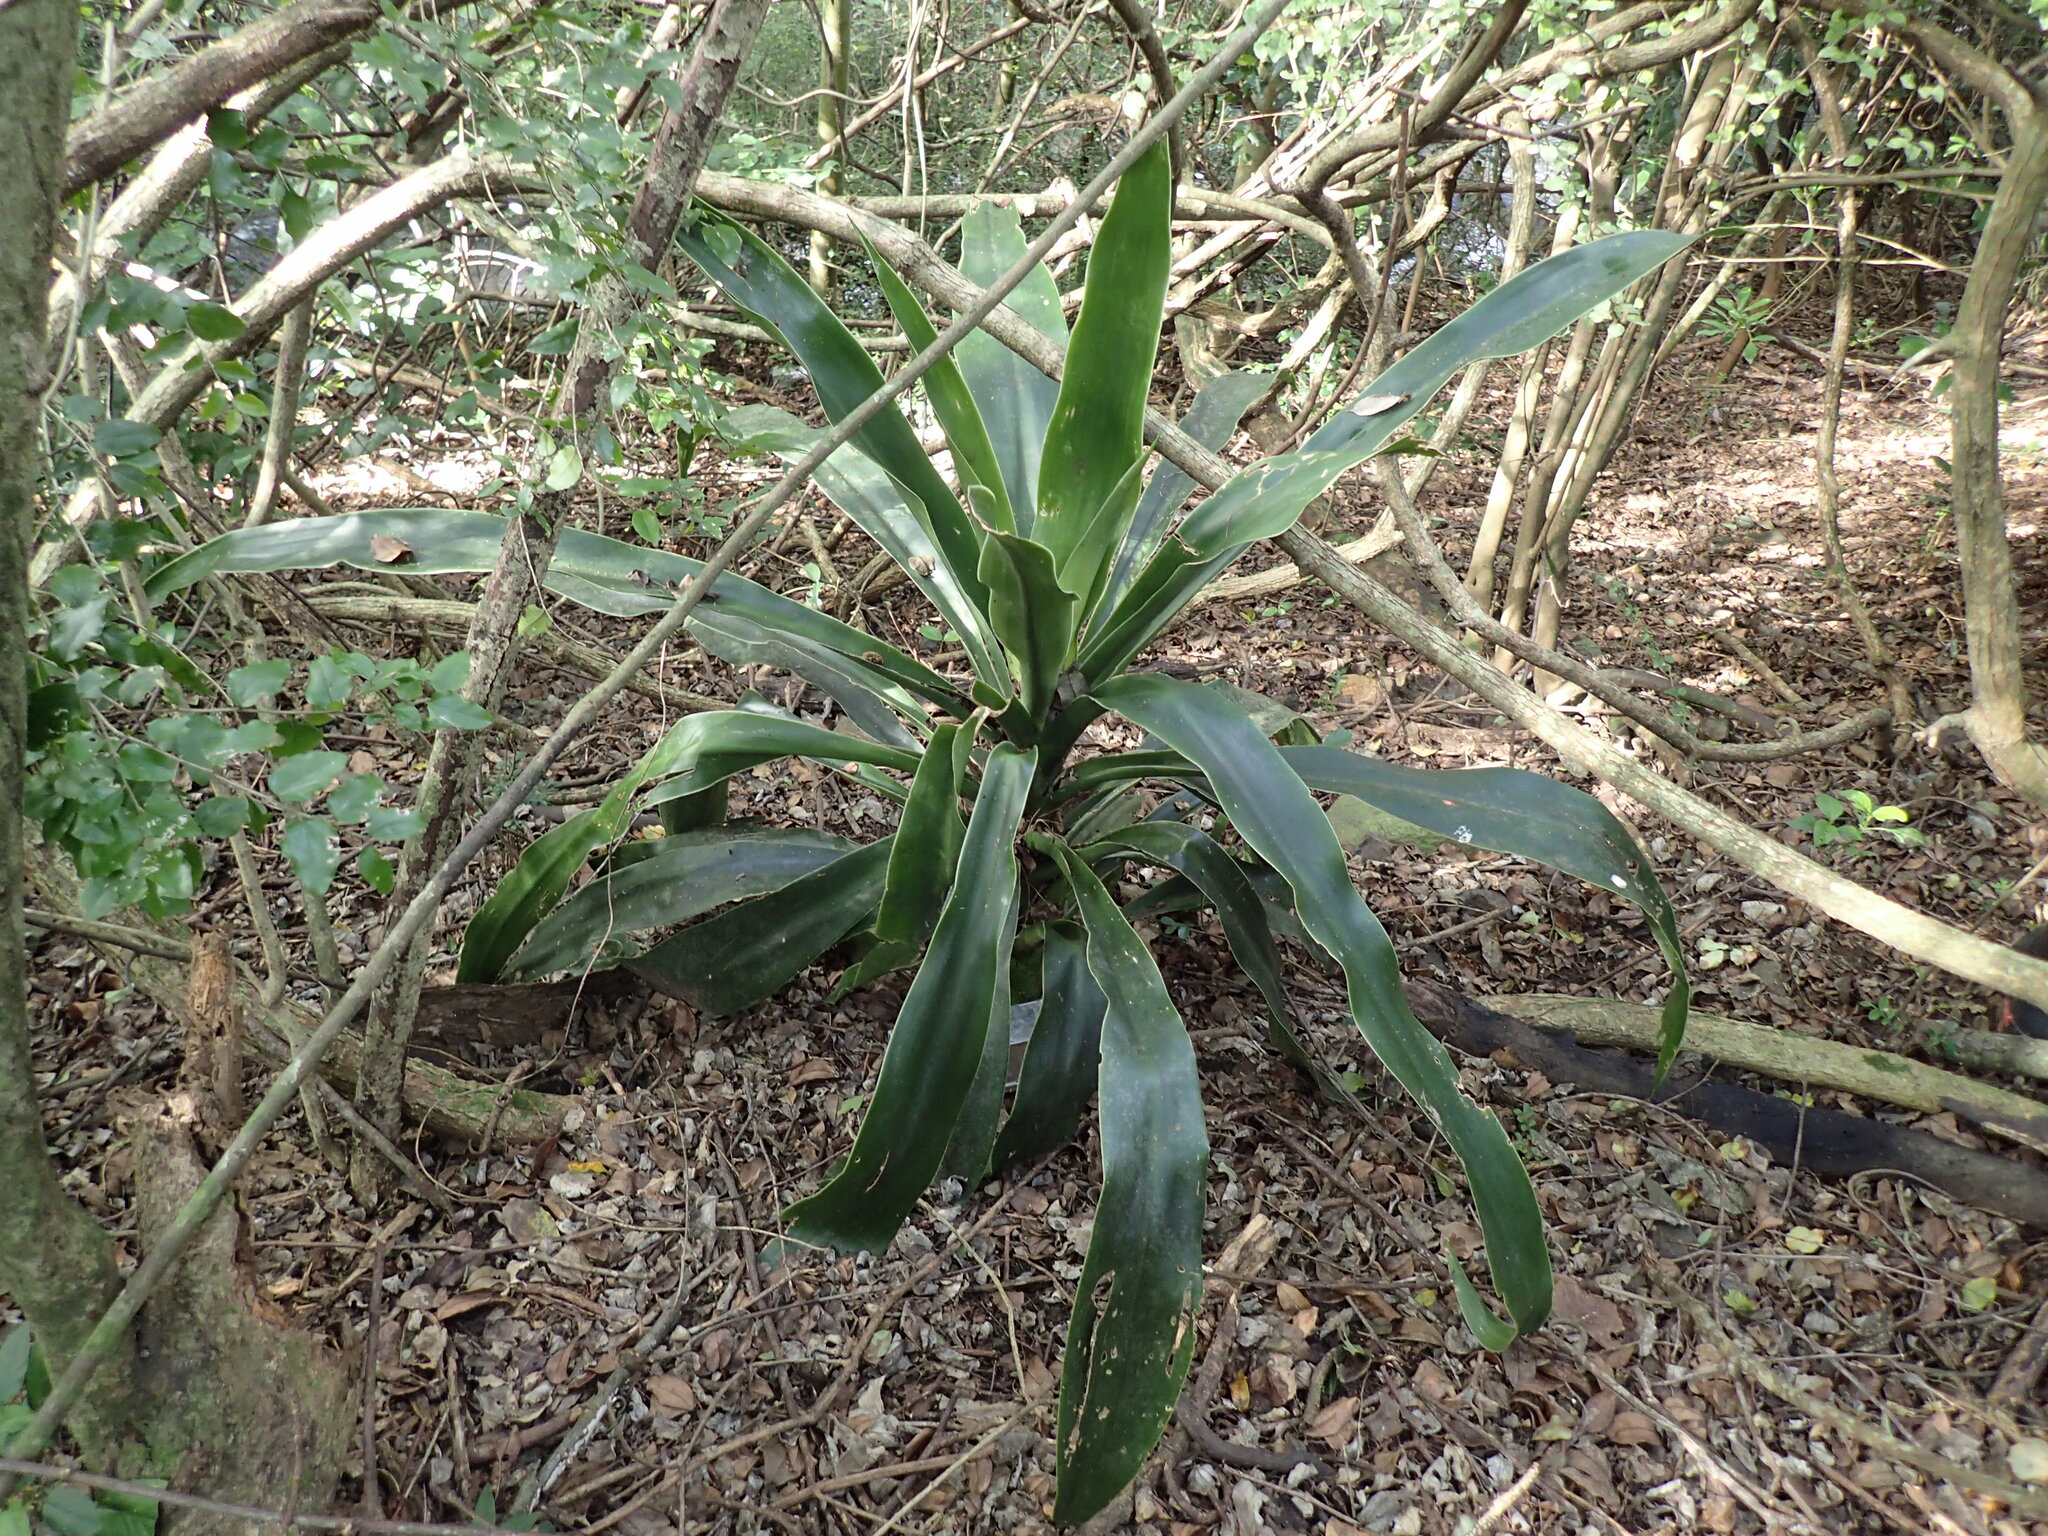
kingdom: Plantae
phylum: Tracheophyta
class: Liliopsida
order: Asparagales
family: Asparagaceae
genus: Dracaena
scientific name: Dracaena aletriformis
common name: Large-leaved dragon tree
